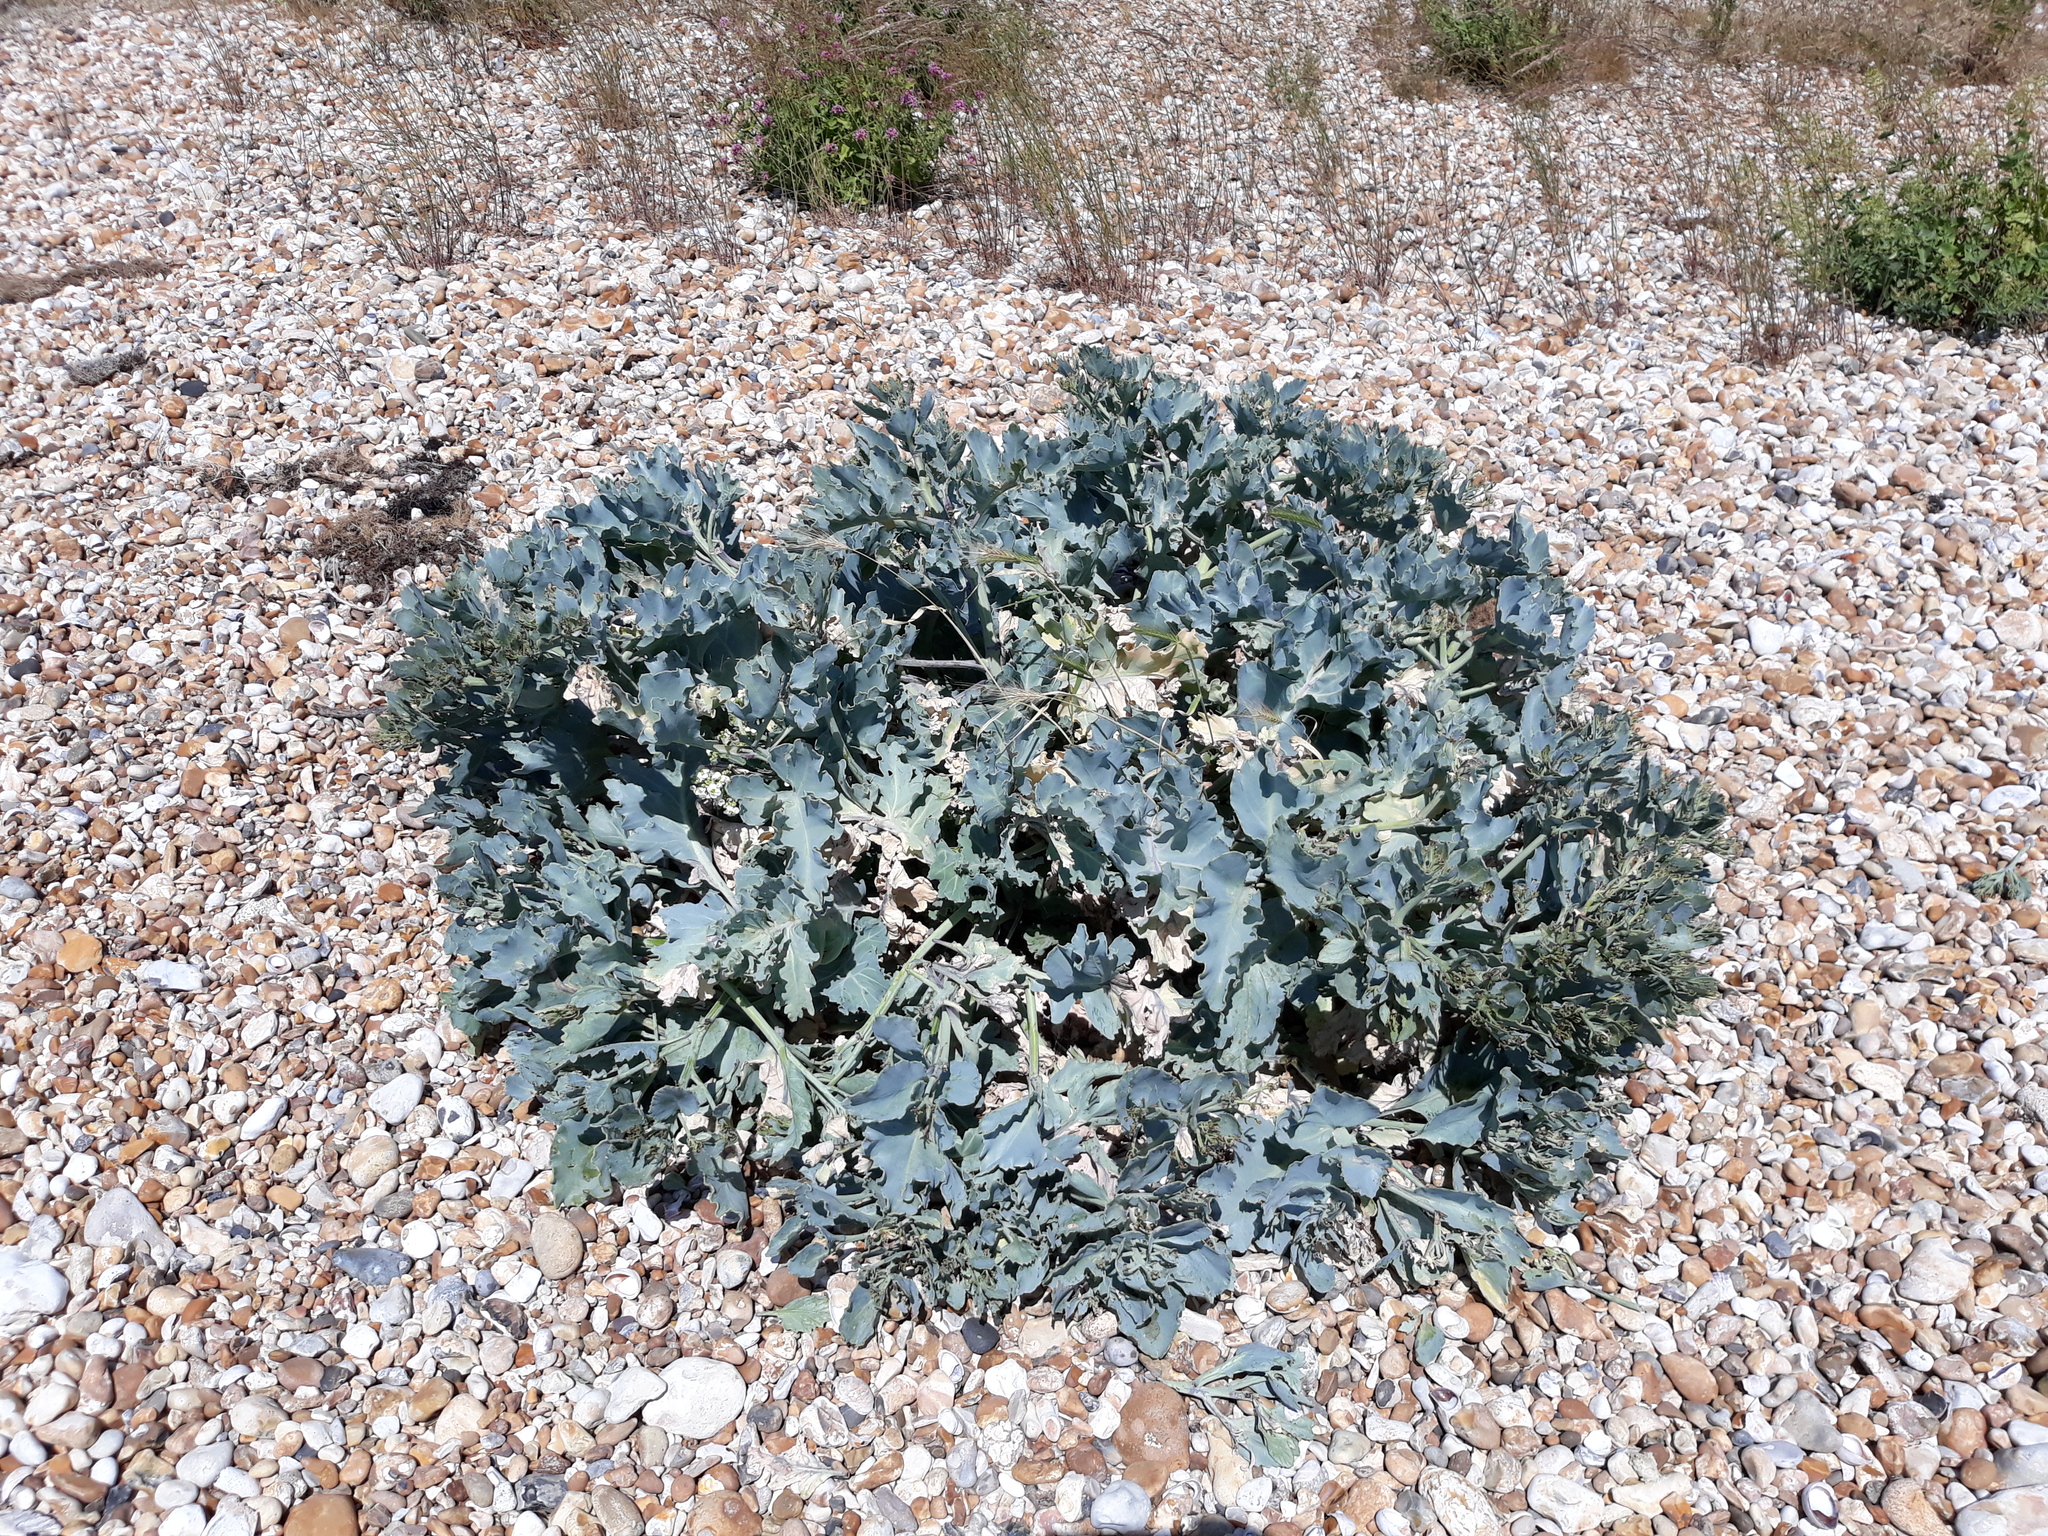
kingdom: Plantae
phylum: Tracheophyta
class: Magnoliopsida
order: Brassicales
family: Brassicaceae
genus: Crambe
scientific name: Crambe maritima
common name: Sea-kale
